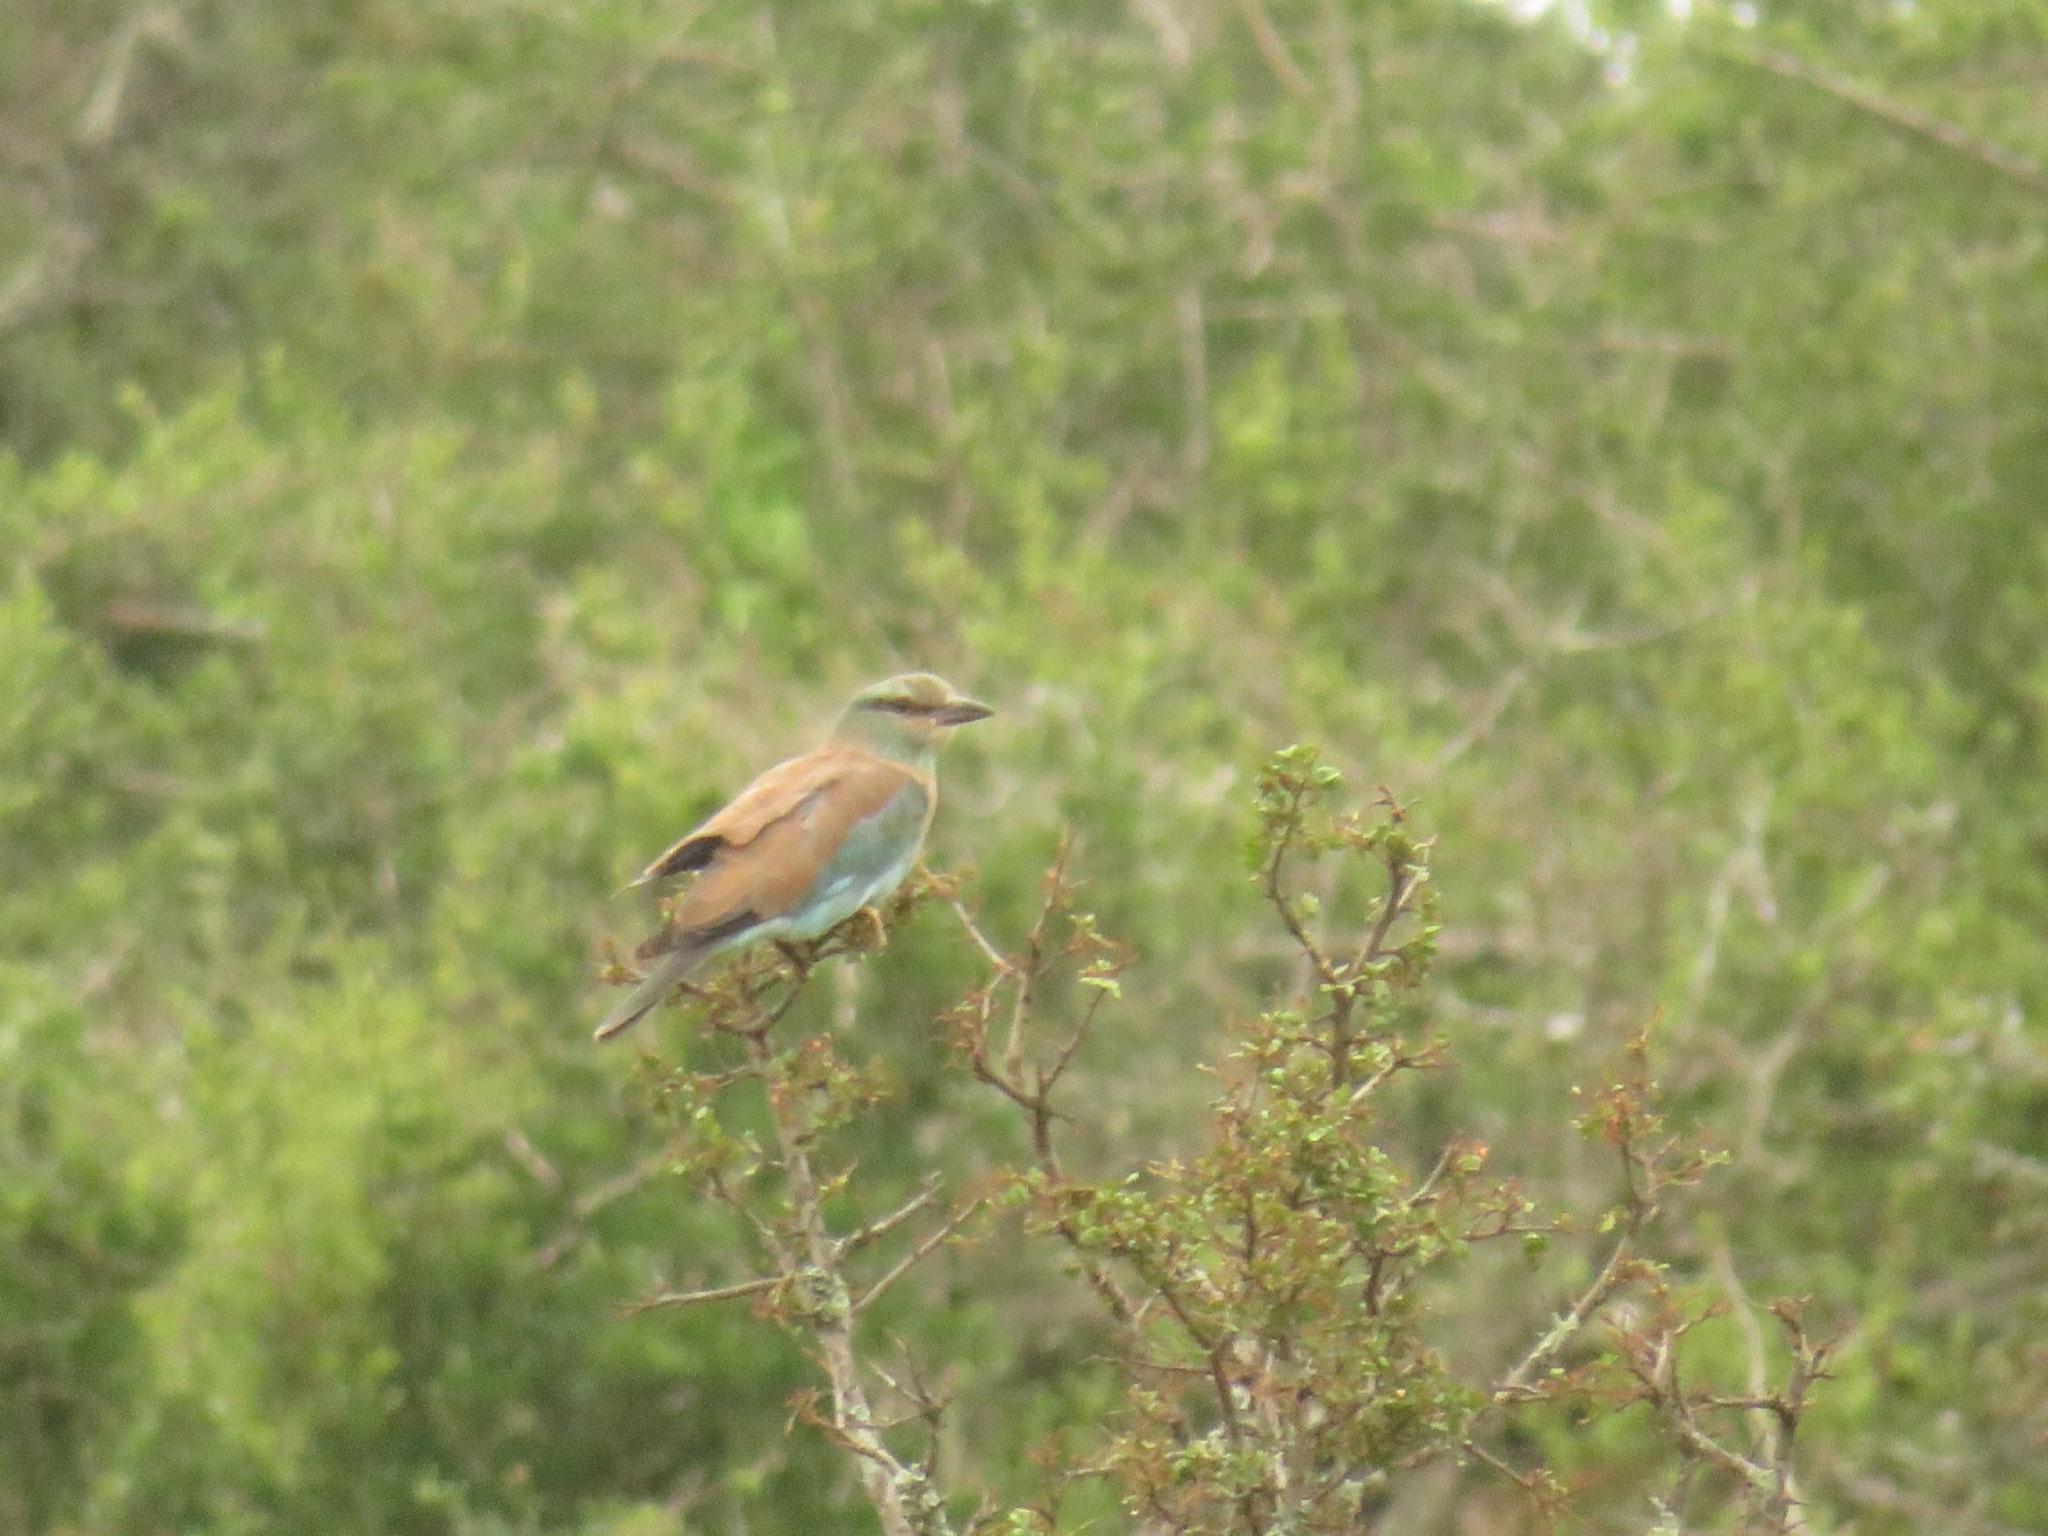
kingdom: Animalia
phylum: Chordata
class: Aves
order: Coraciiformes
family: Coraciidae
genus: Coracias
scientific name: Coracias garrulus
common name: European roller
